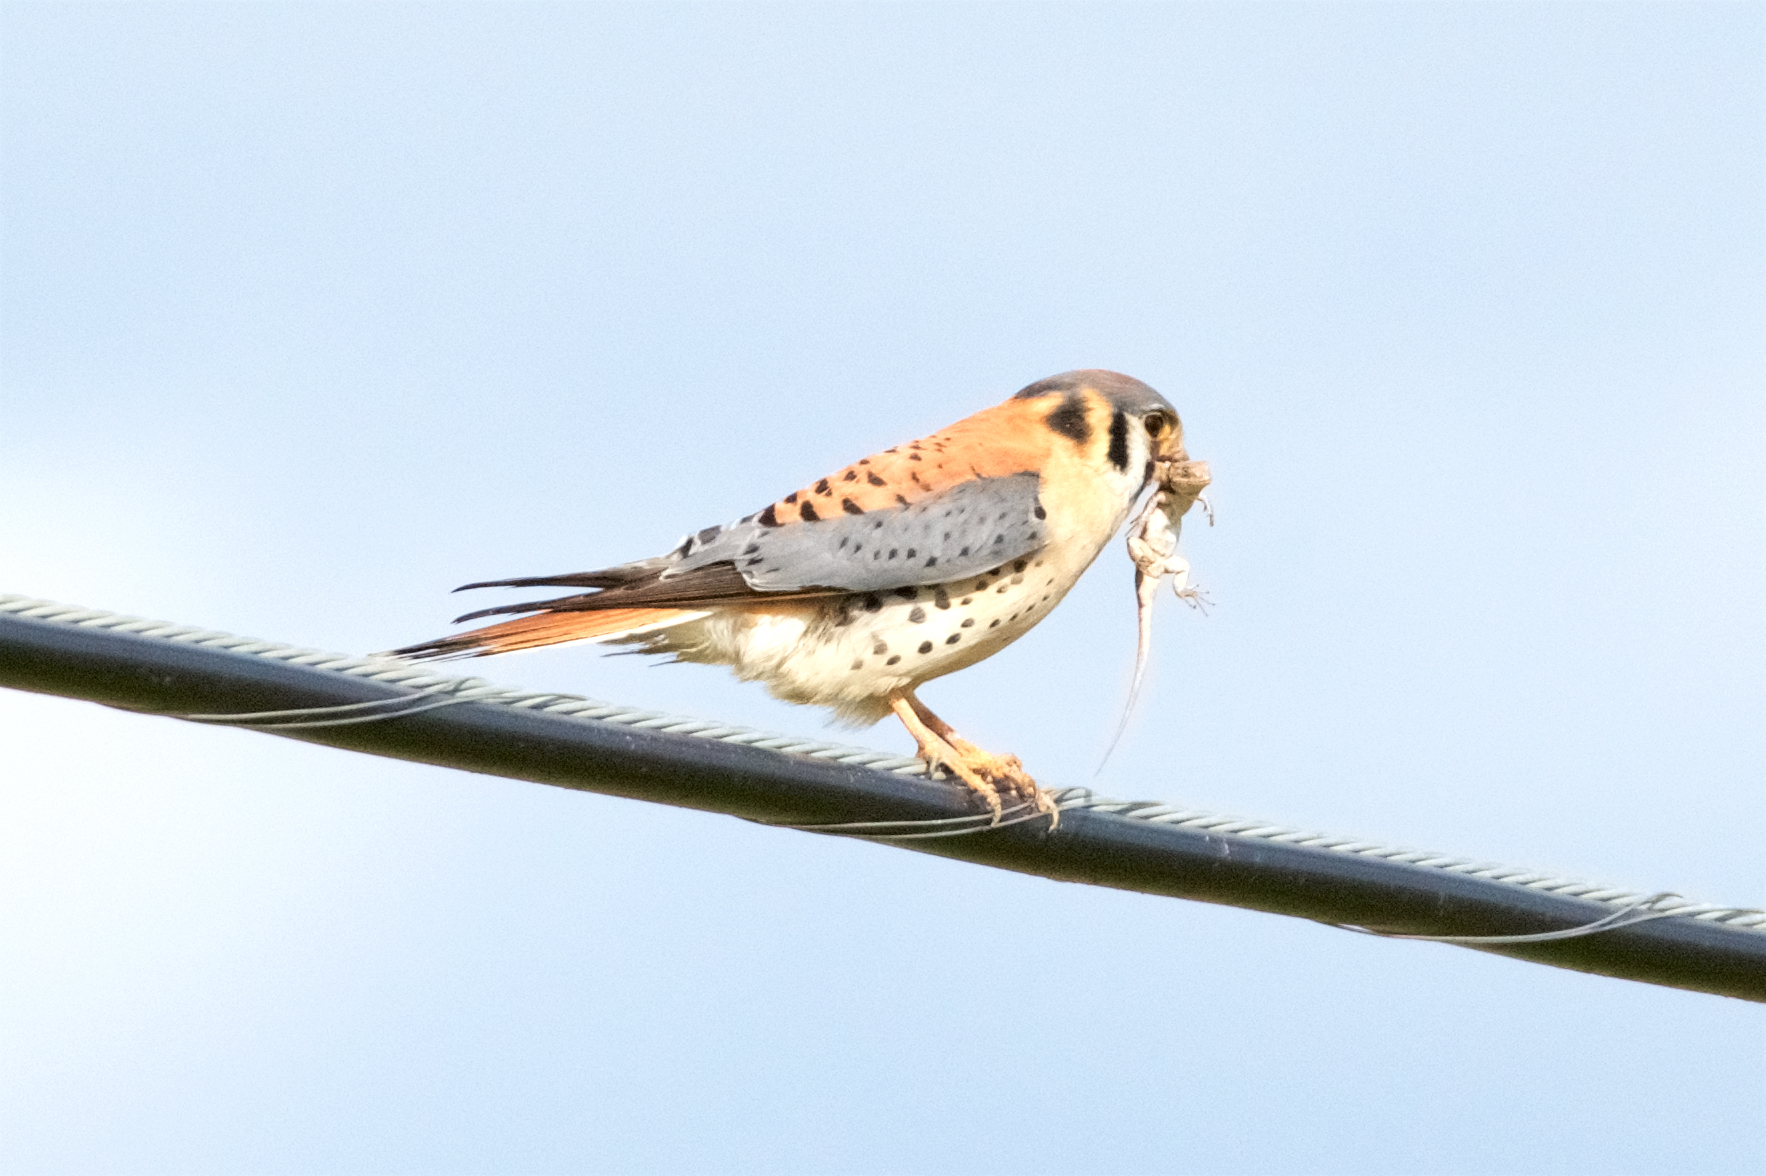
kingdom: Animalia
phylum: Chordata
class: Aves
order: Falconiformes
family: Falconidae
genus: Falco
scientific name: Falco sparverius
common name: American kestrel
